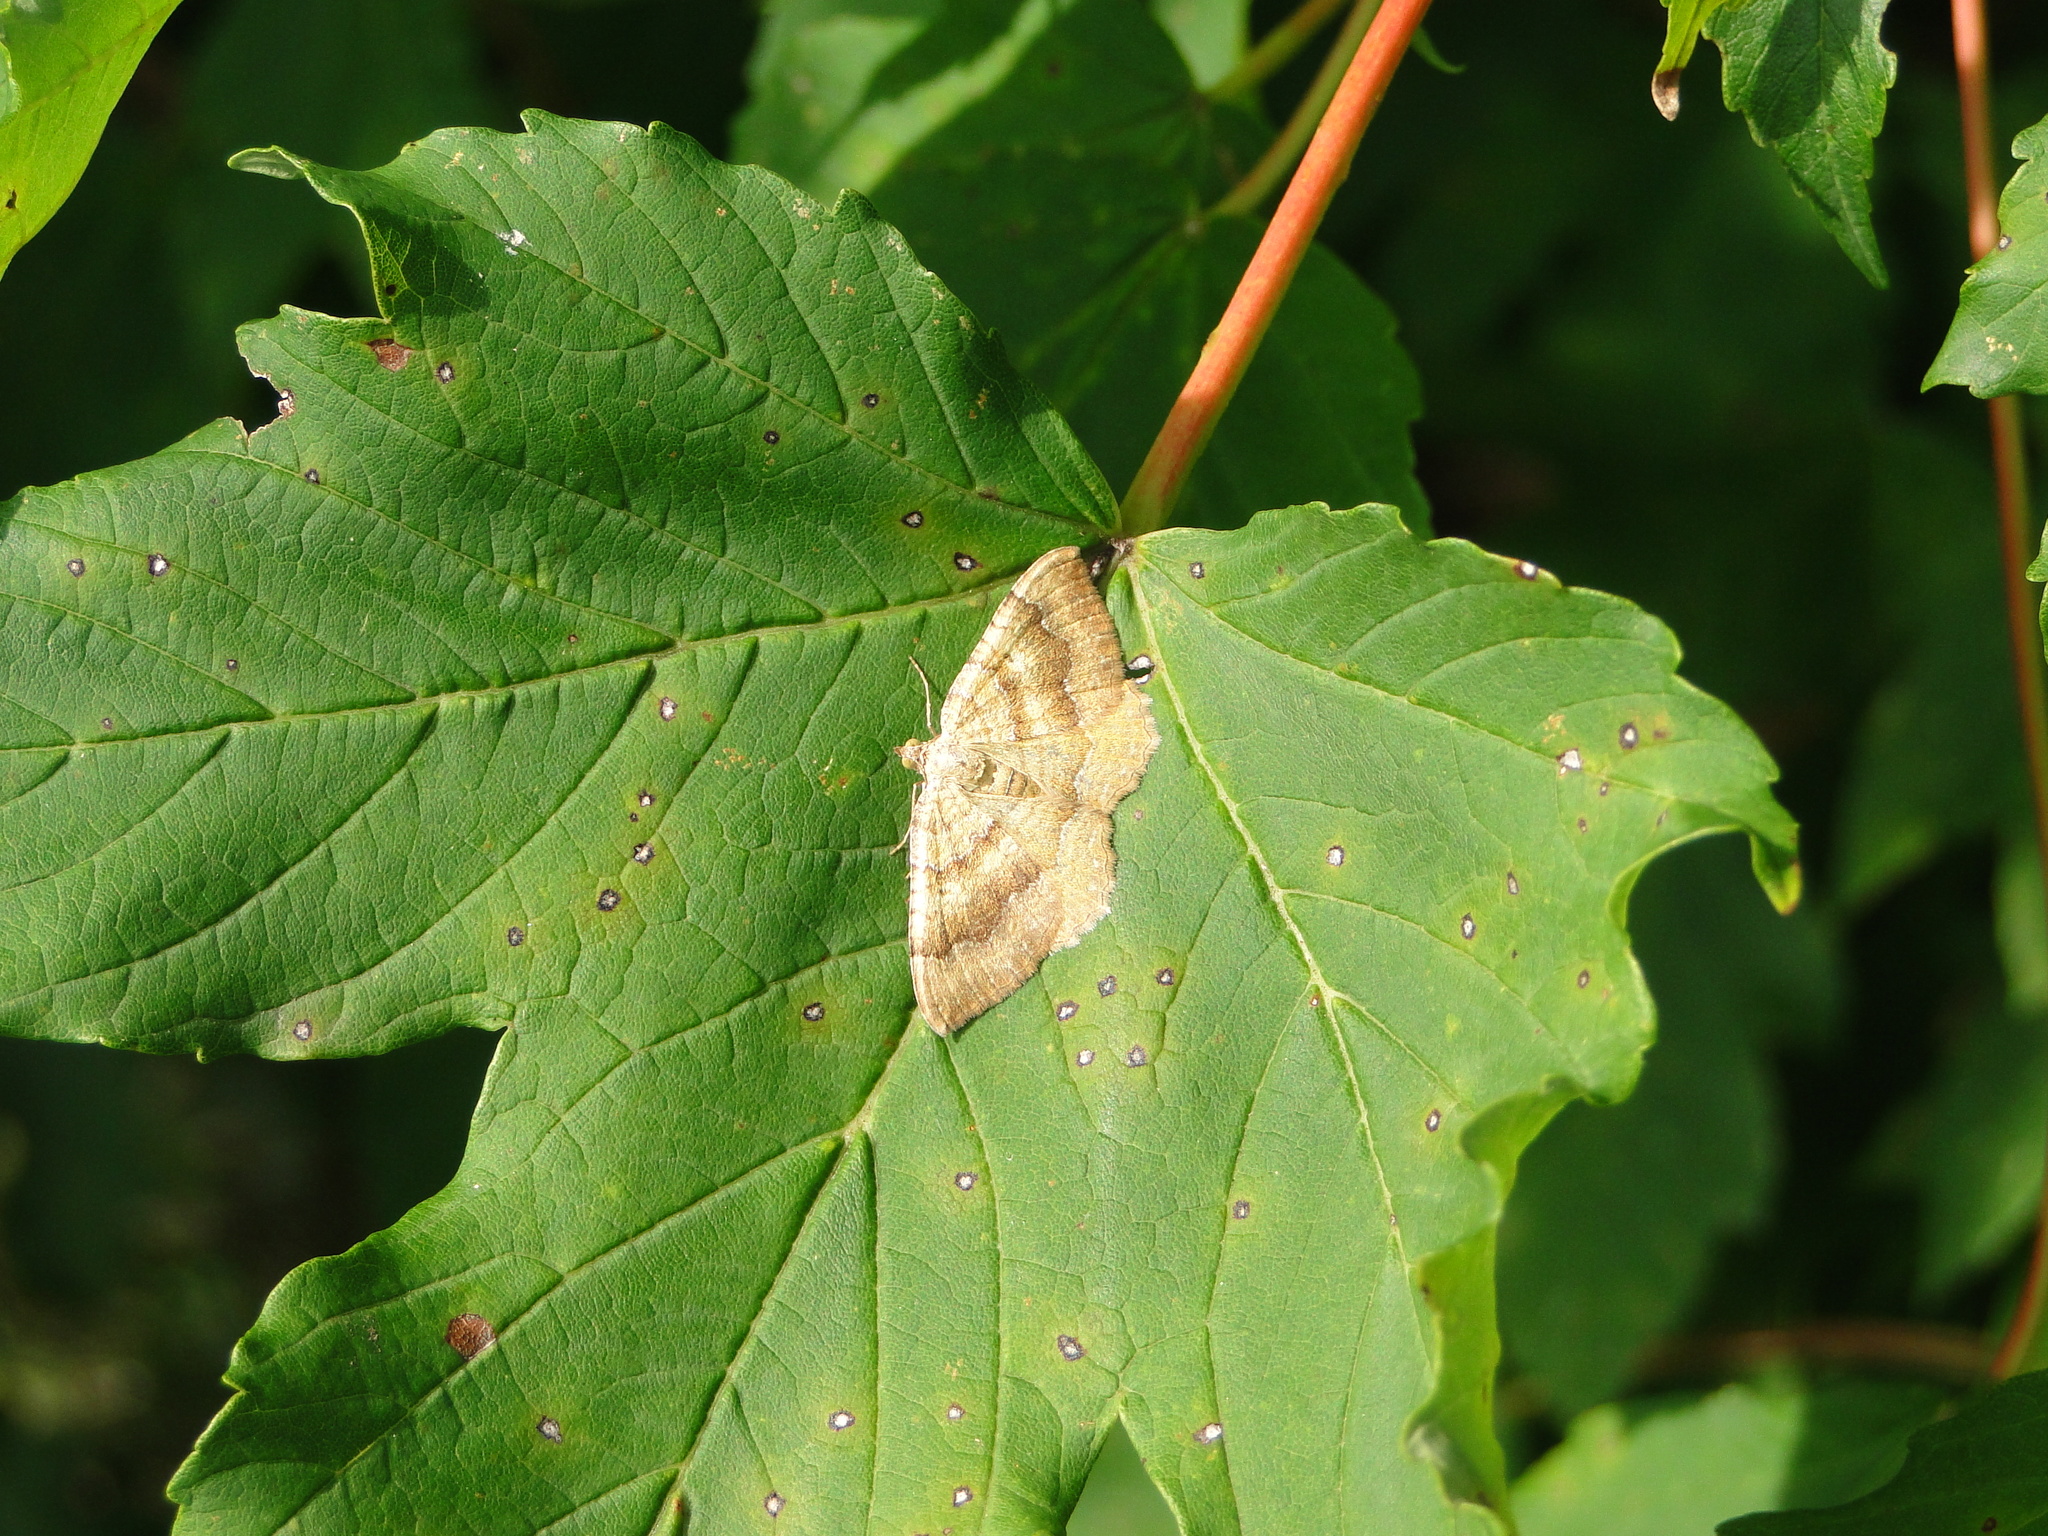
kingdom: Animalia
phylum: Arthropoda
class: Insecta
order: Lepidoptera
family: Geometridae
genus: Camptogramma
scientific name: Camptogramma bilineata
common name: Yellow shell
